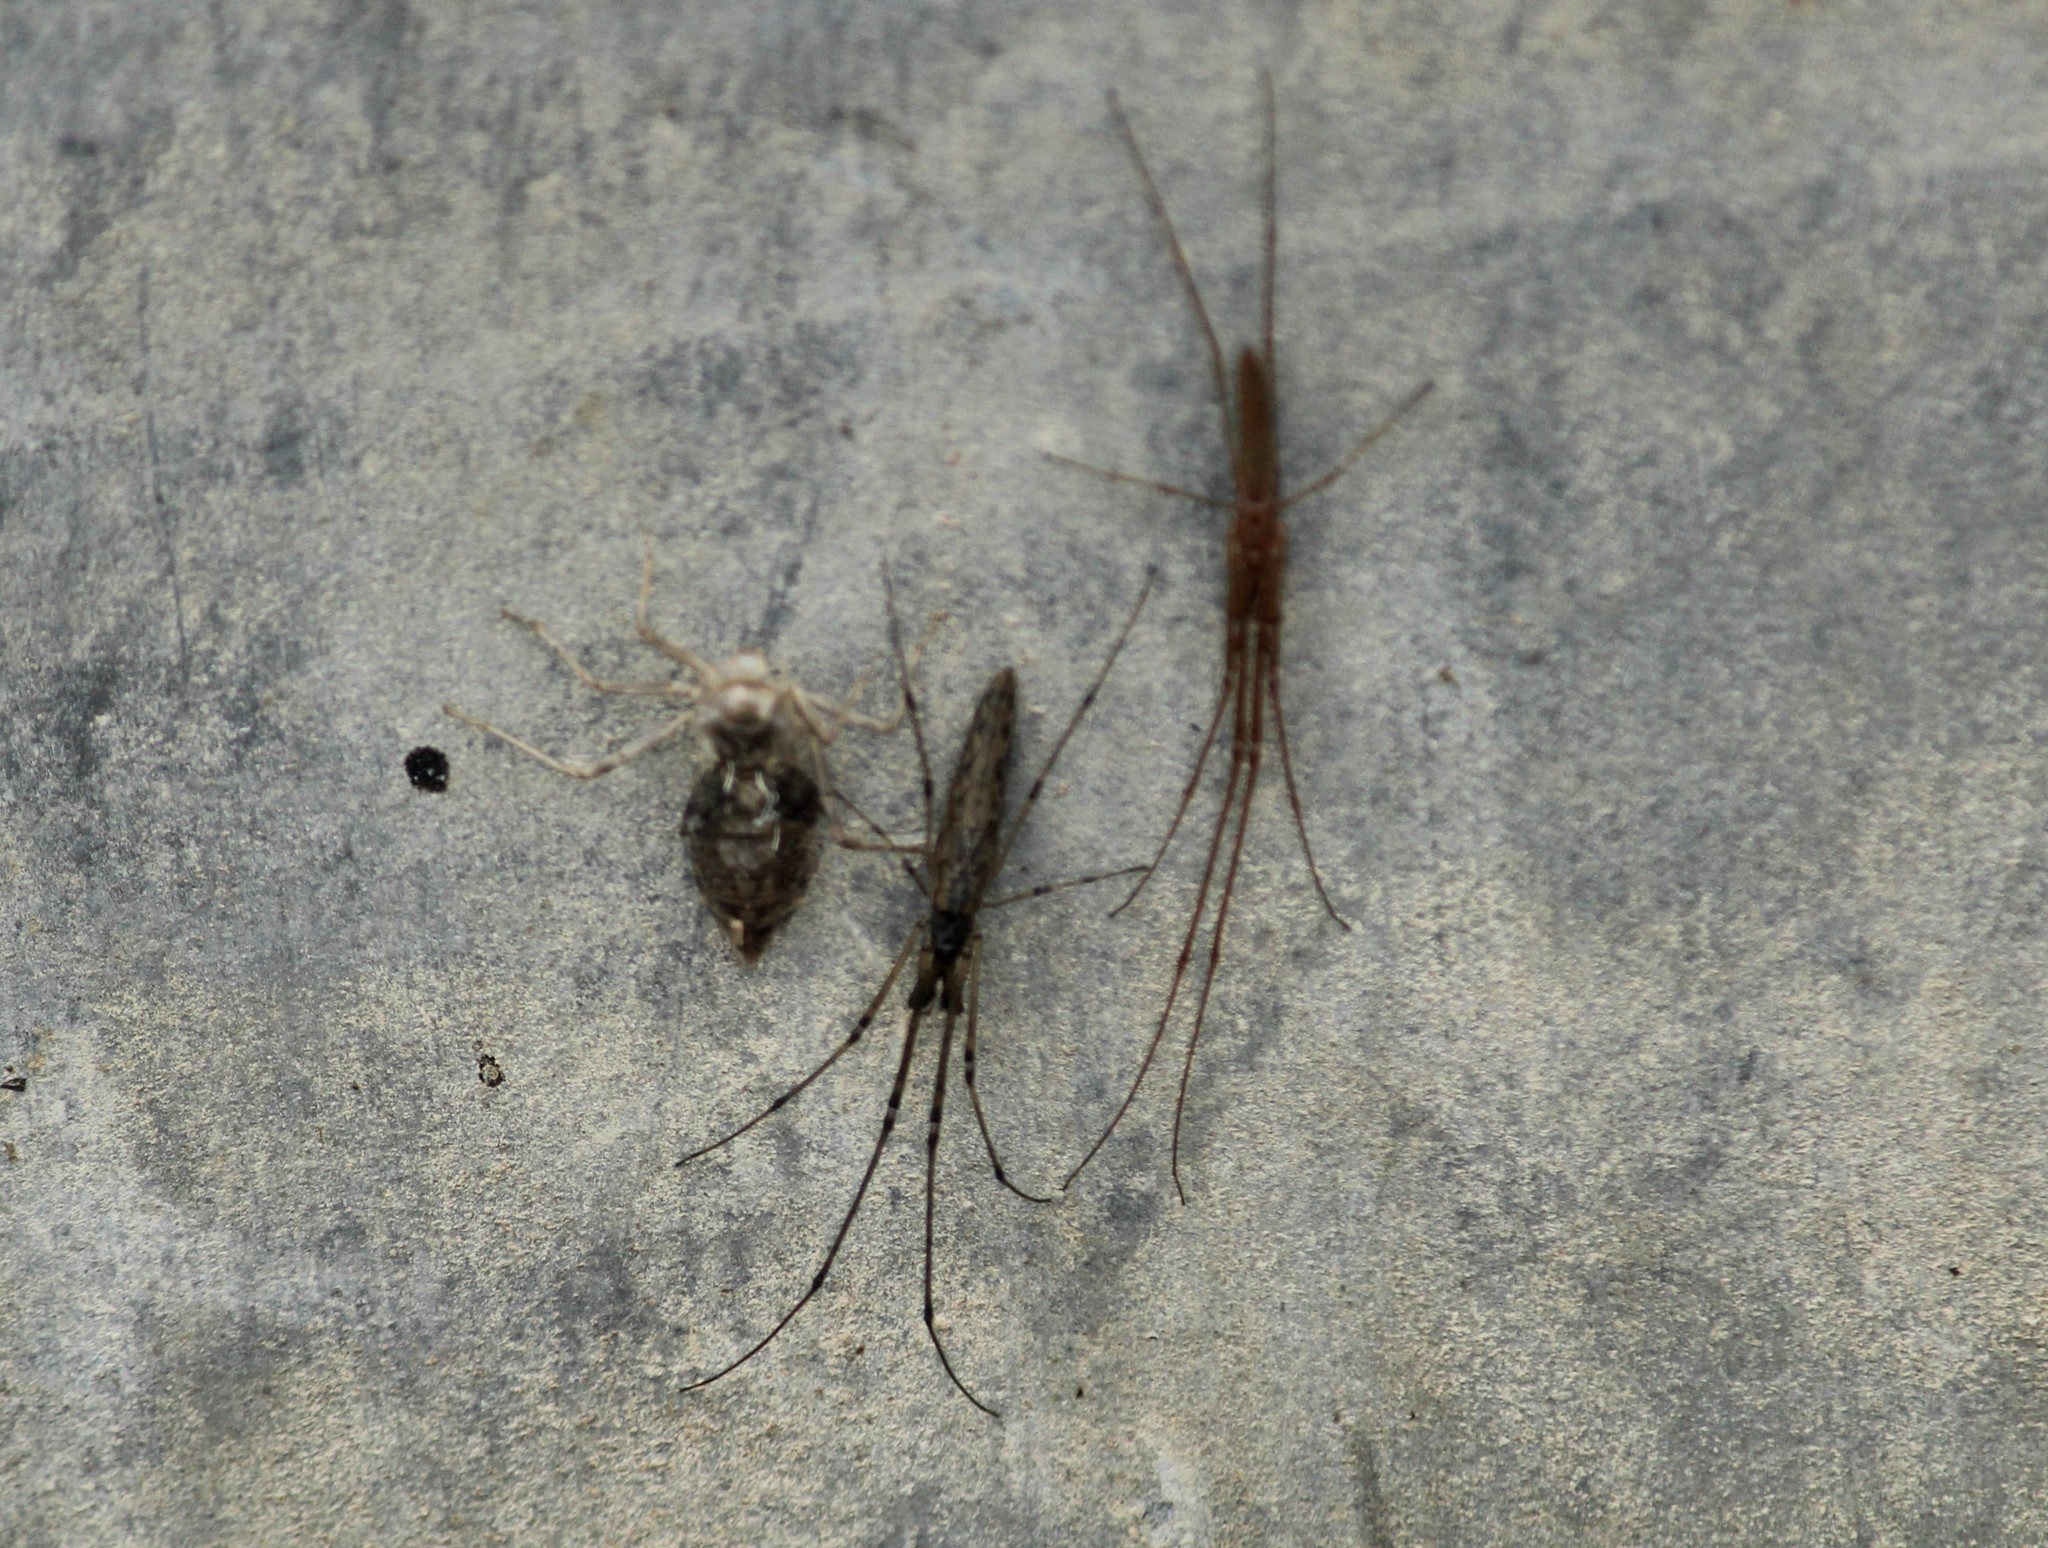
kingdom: Animalia
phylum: Arthropoda
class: Arachnida
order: Araneae
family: Tetragnathidae
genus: Tetragnatha
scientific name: Tetragnatha
